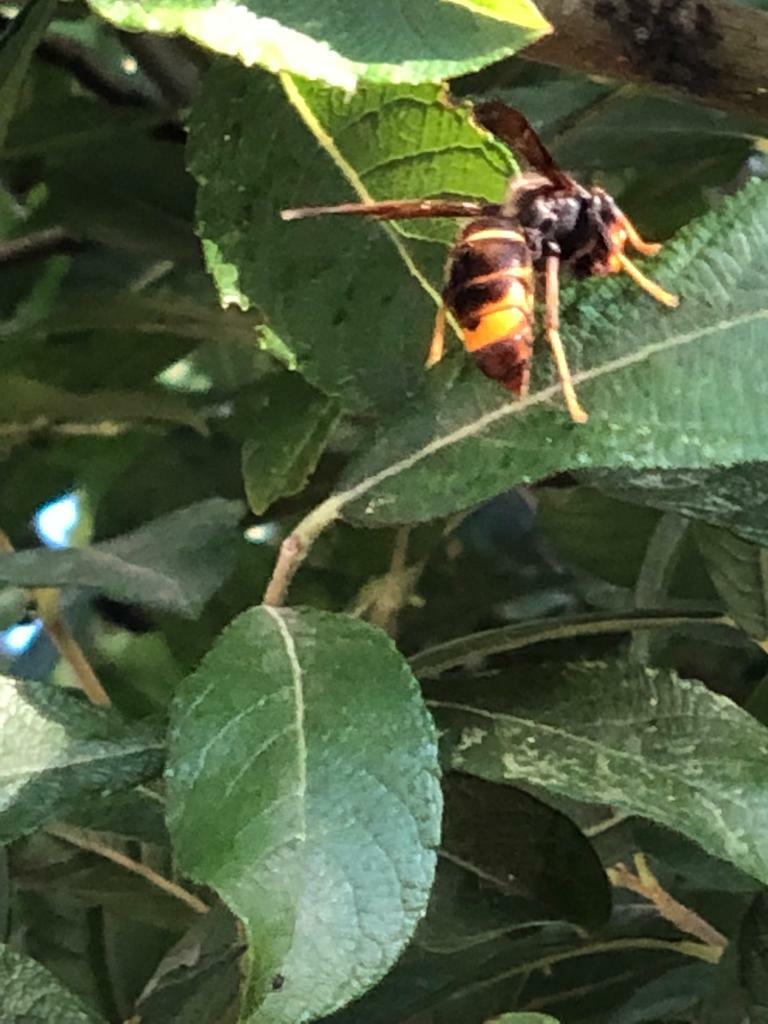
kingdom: Animalia
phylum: Arthropoda
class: Insecta
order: Hymenoptera
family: Vespidae
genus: Vespa
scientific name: Vespa velutina
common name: Asian hornet
